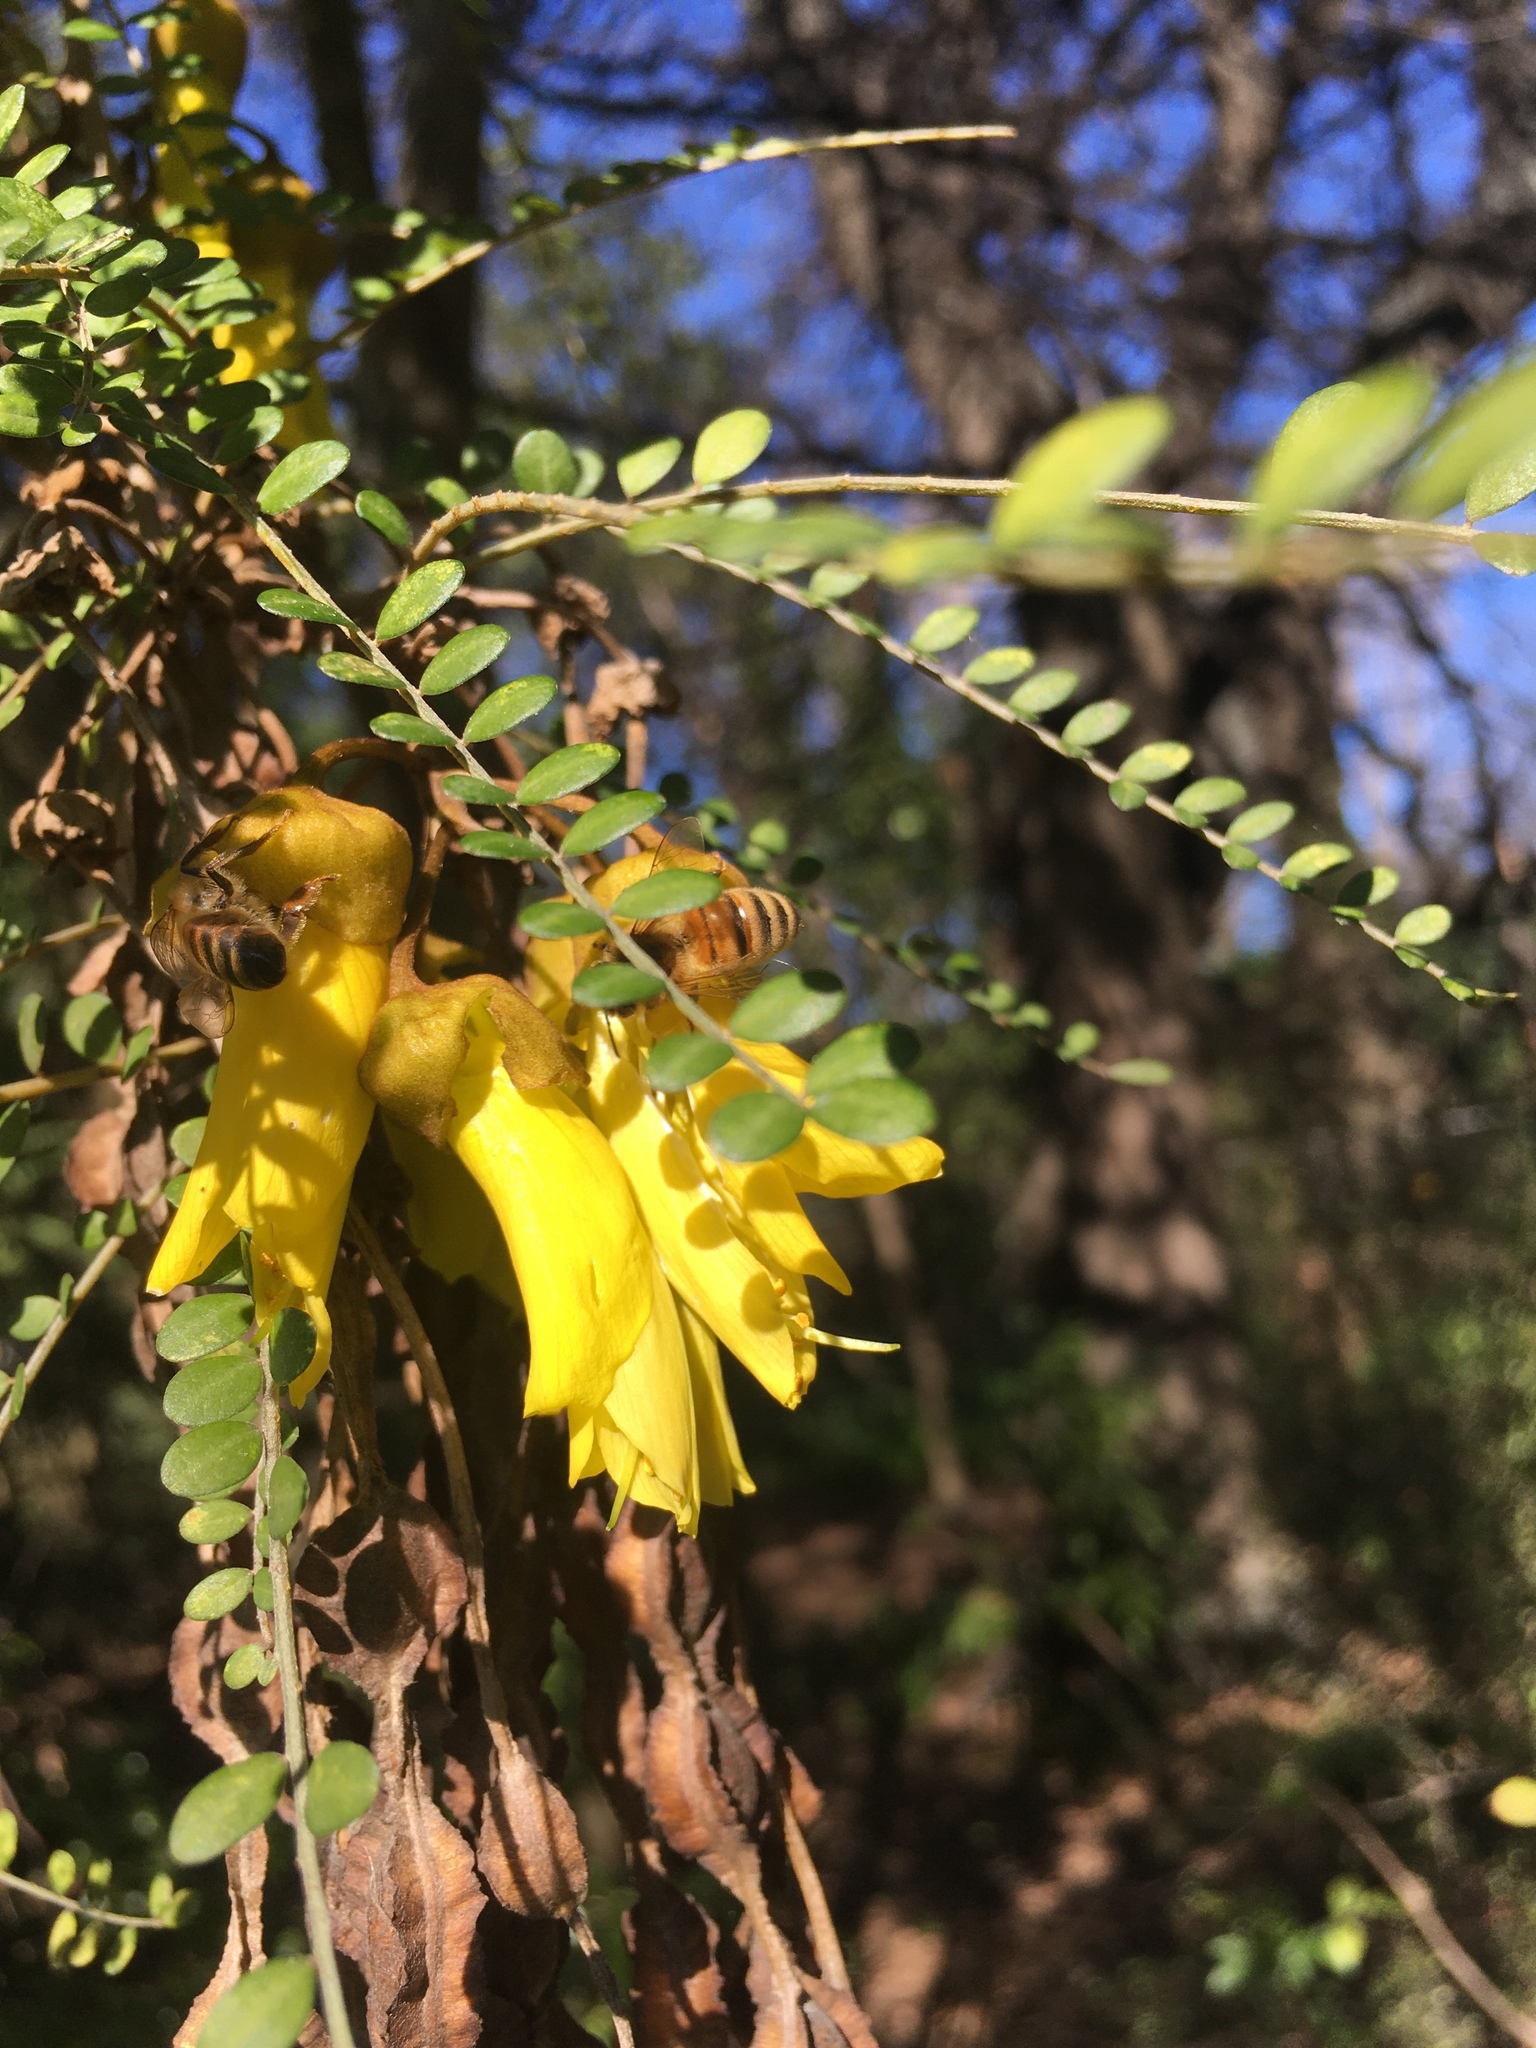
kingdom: Animalia
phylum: Arthropoda
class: Insecta
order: Hymenoptera
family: Apidae
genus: Apis
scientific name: Apis mellifera
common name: Honey bee
